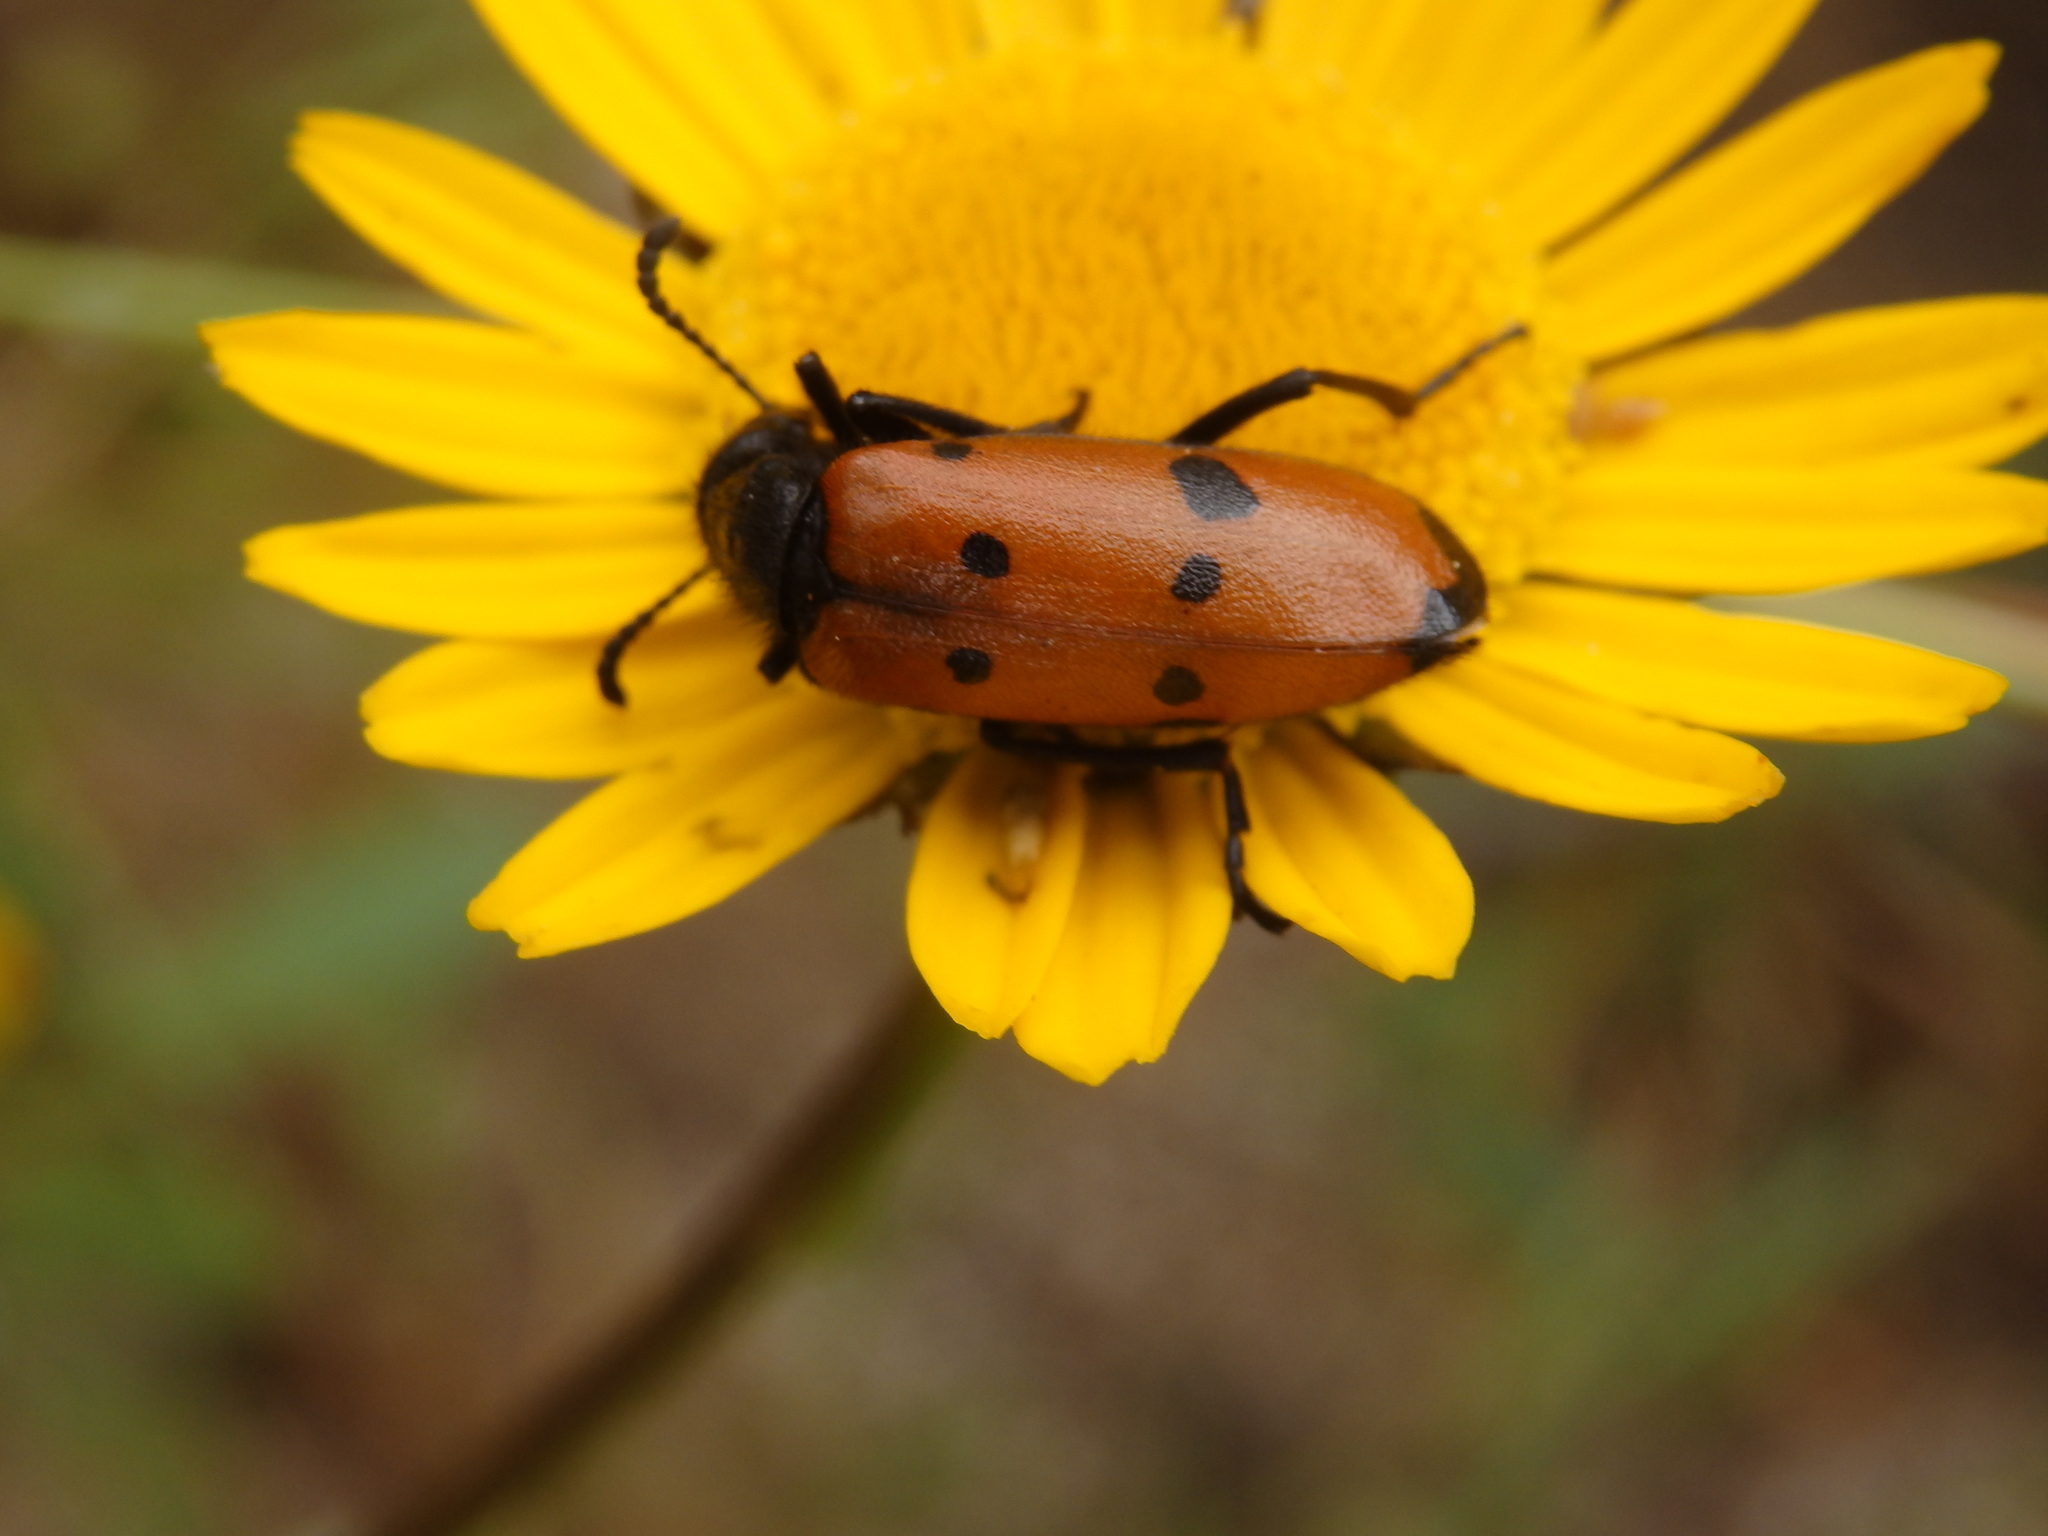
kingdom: Animalia
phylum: Arthropoda
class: Insecta
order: Coleoptera
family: Meloidae
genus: Mylabris
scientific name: Mylabris quadripunctata
